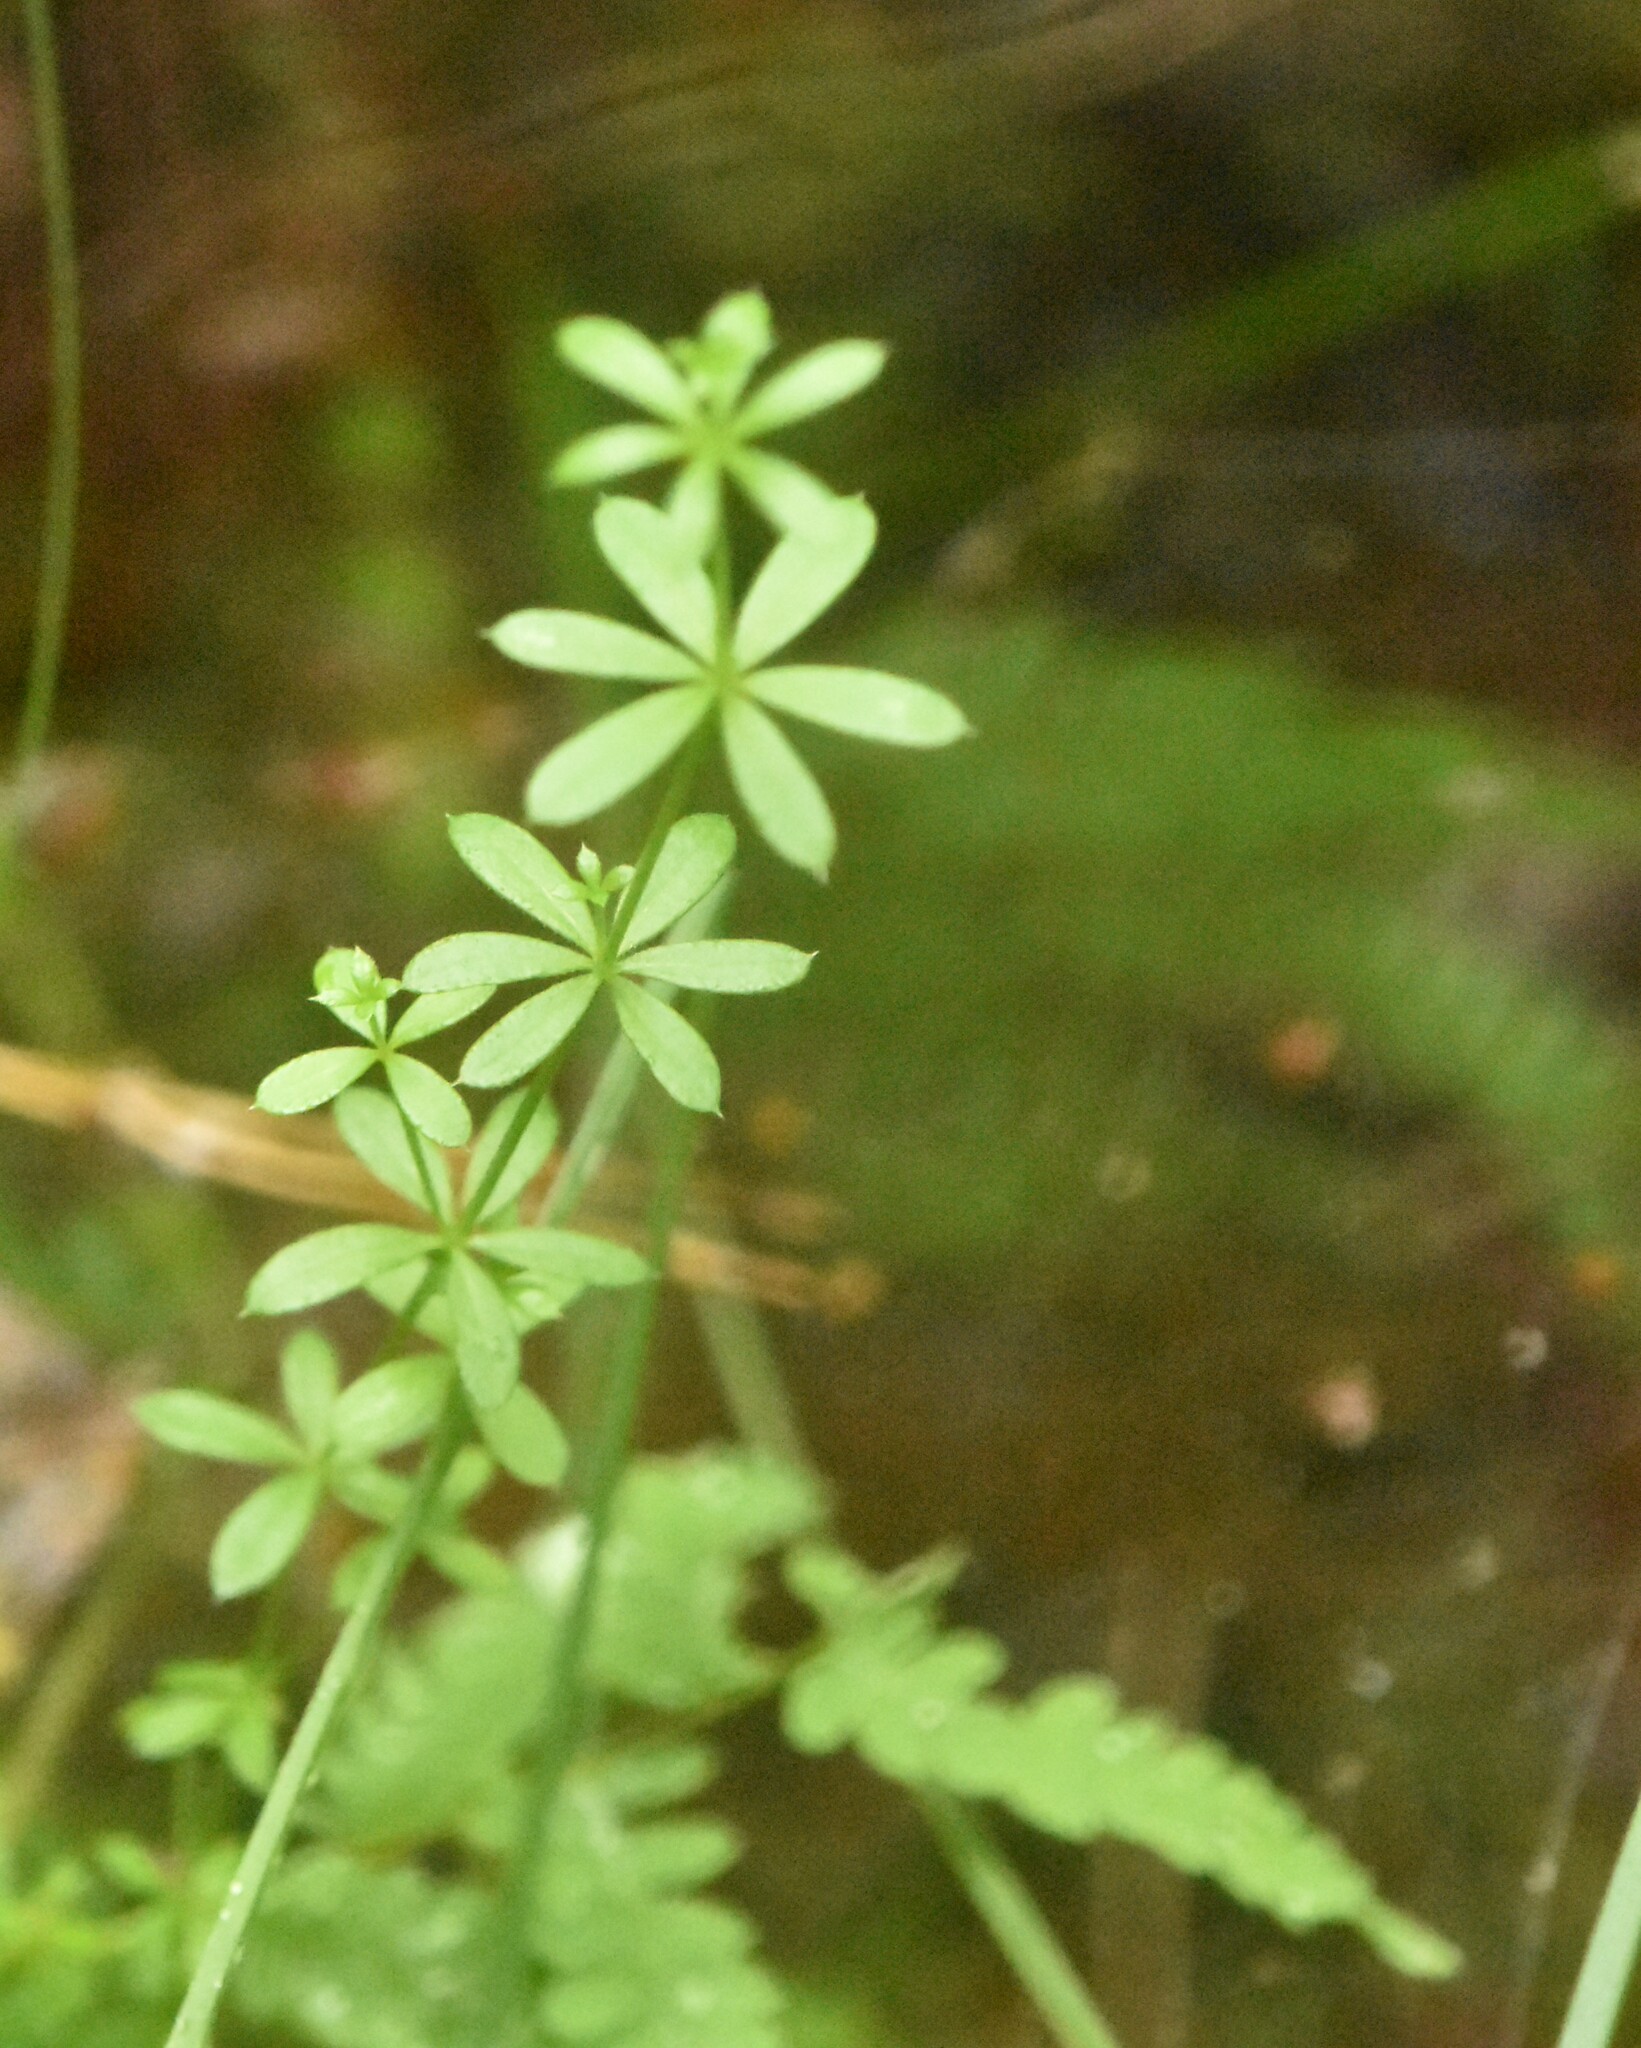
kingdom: Plantae
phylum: Tracheophyta
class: Magnoliopsida
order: Gentianales
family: Rubiaceae
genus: Galium
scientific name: Galium uliginosum
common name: Fen bedstraw
